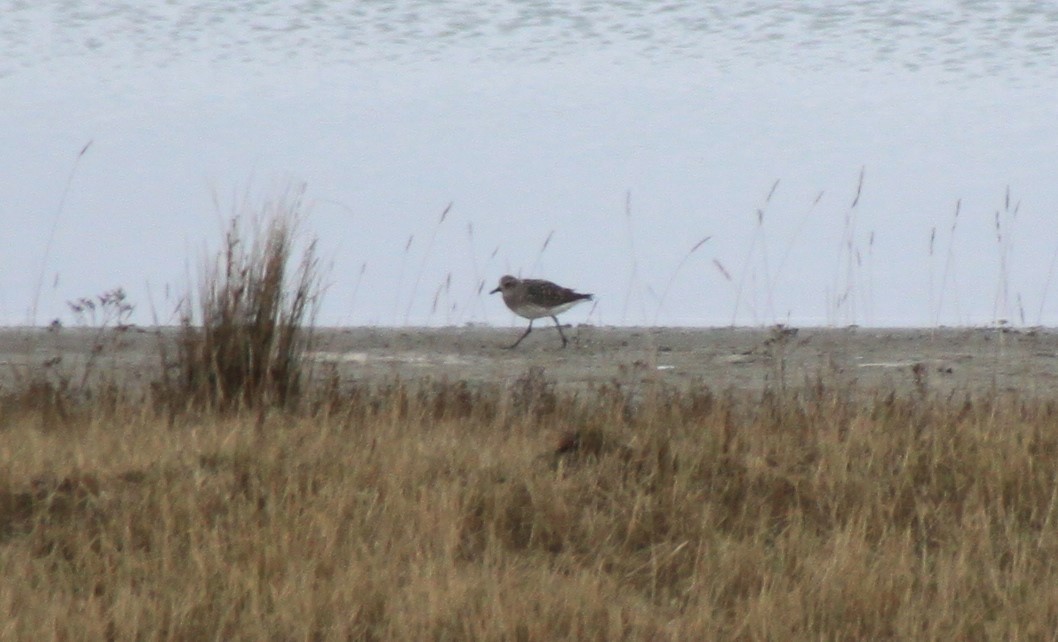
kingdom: Animalia
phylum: Chordata
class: Aves
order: Charadriiformes
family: Charadriidae
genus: Pluvialis
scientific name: Pluvialis squatarola
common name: Grey plover
